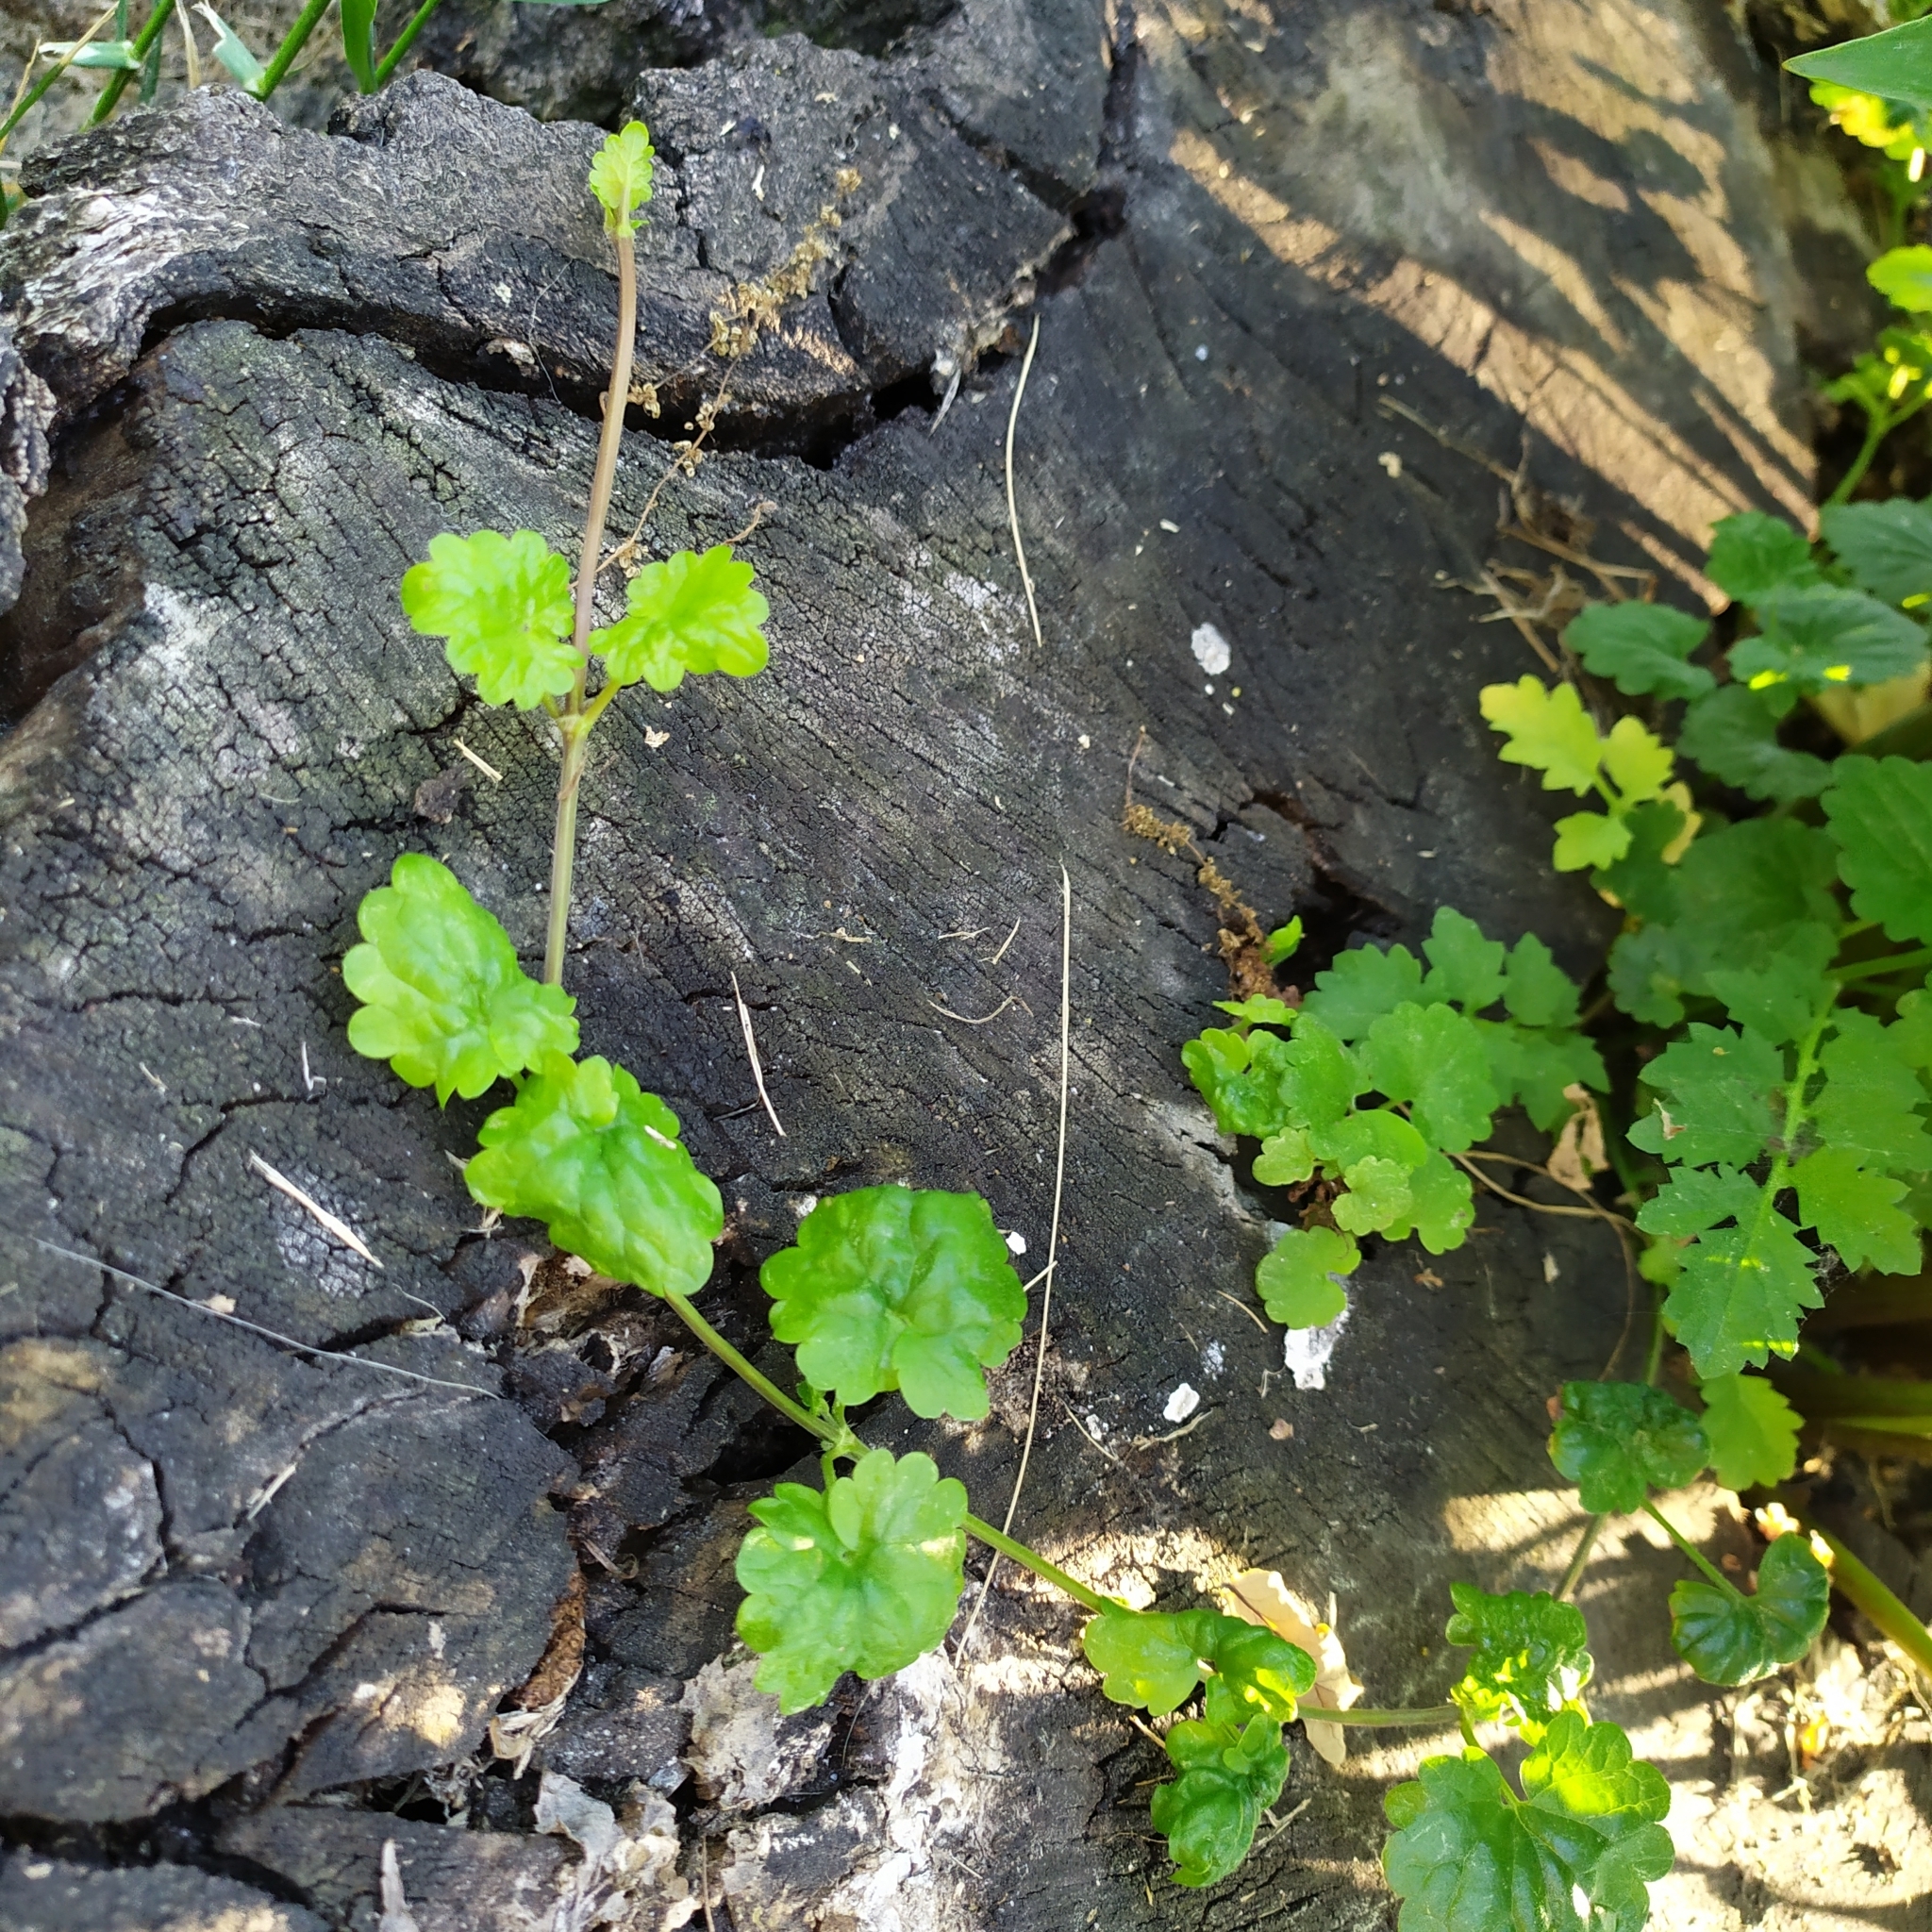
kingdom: Plantae
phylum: Tracheophyta
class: Magnoliopsida
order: Lamiales
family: Lamiaceae
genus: Glechoma
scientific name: Glechoma hederacea
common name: Ground ivy
